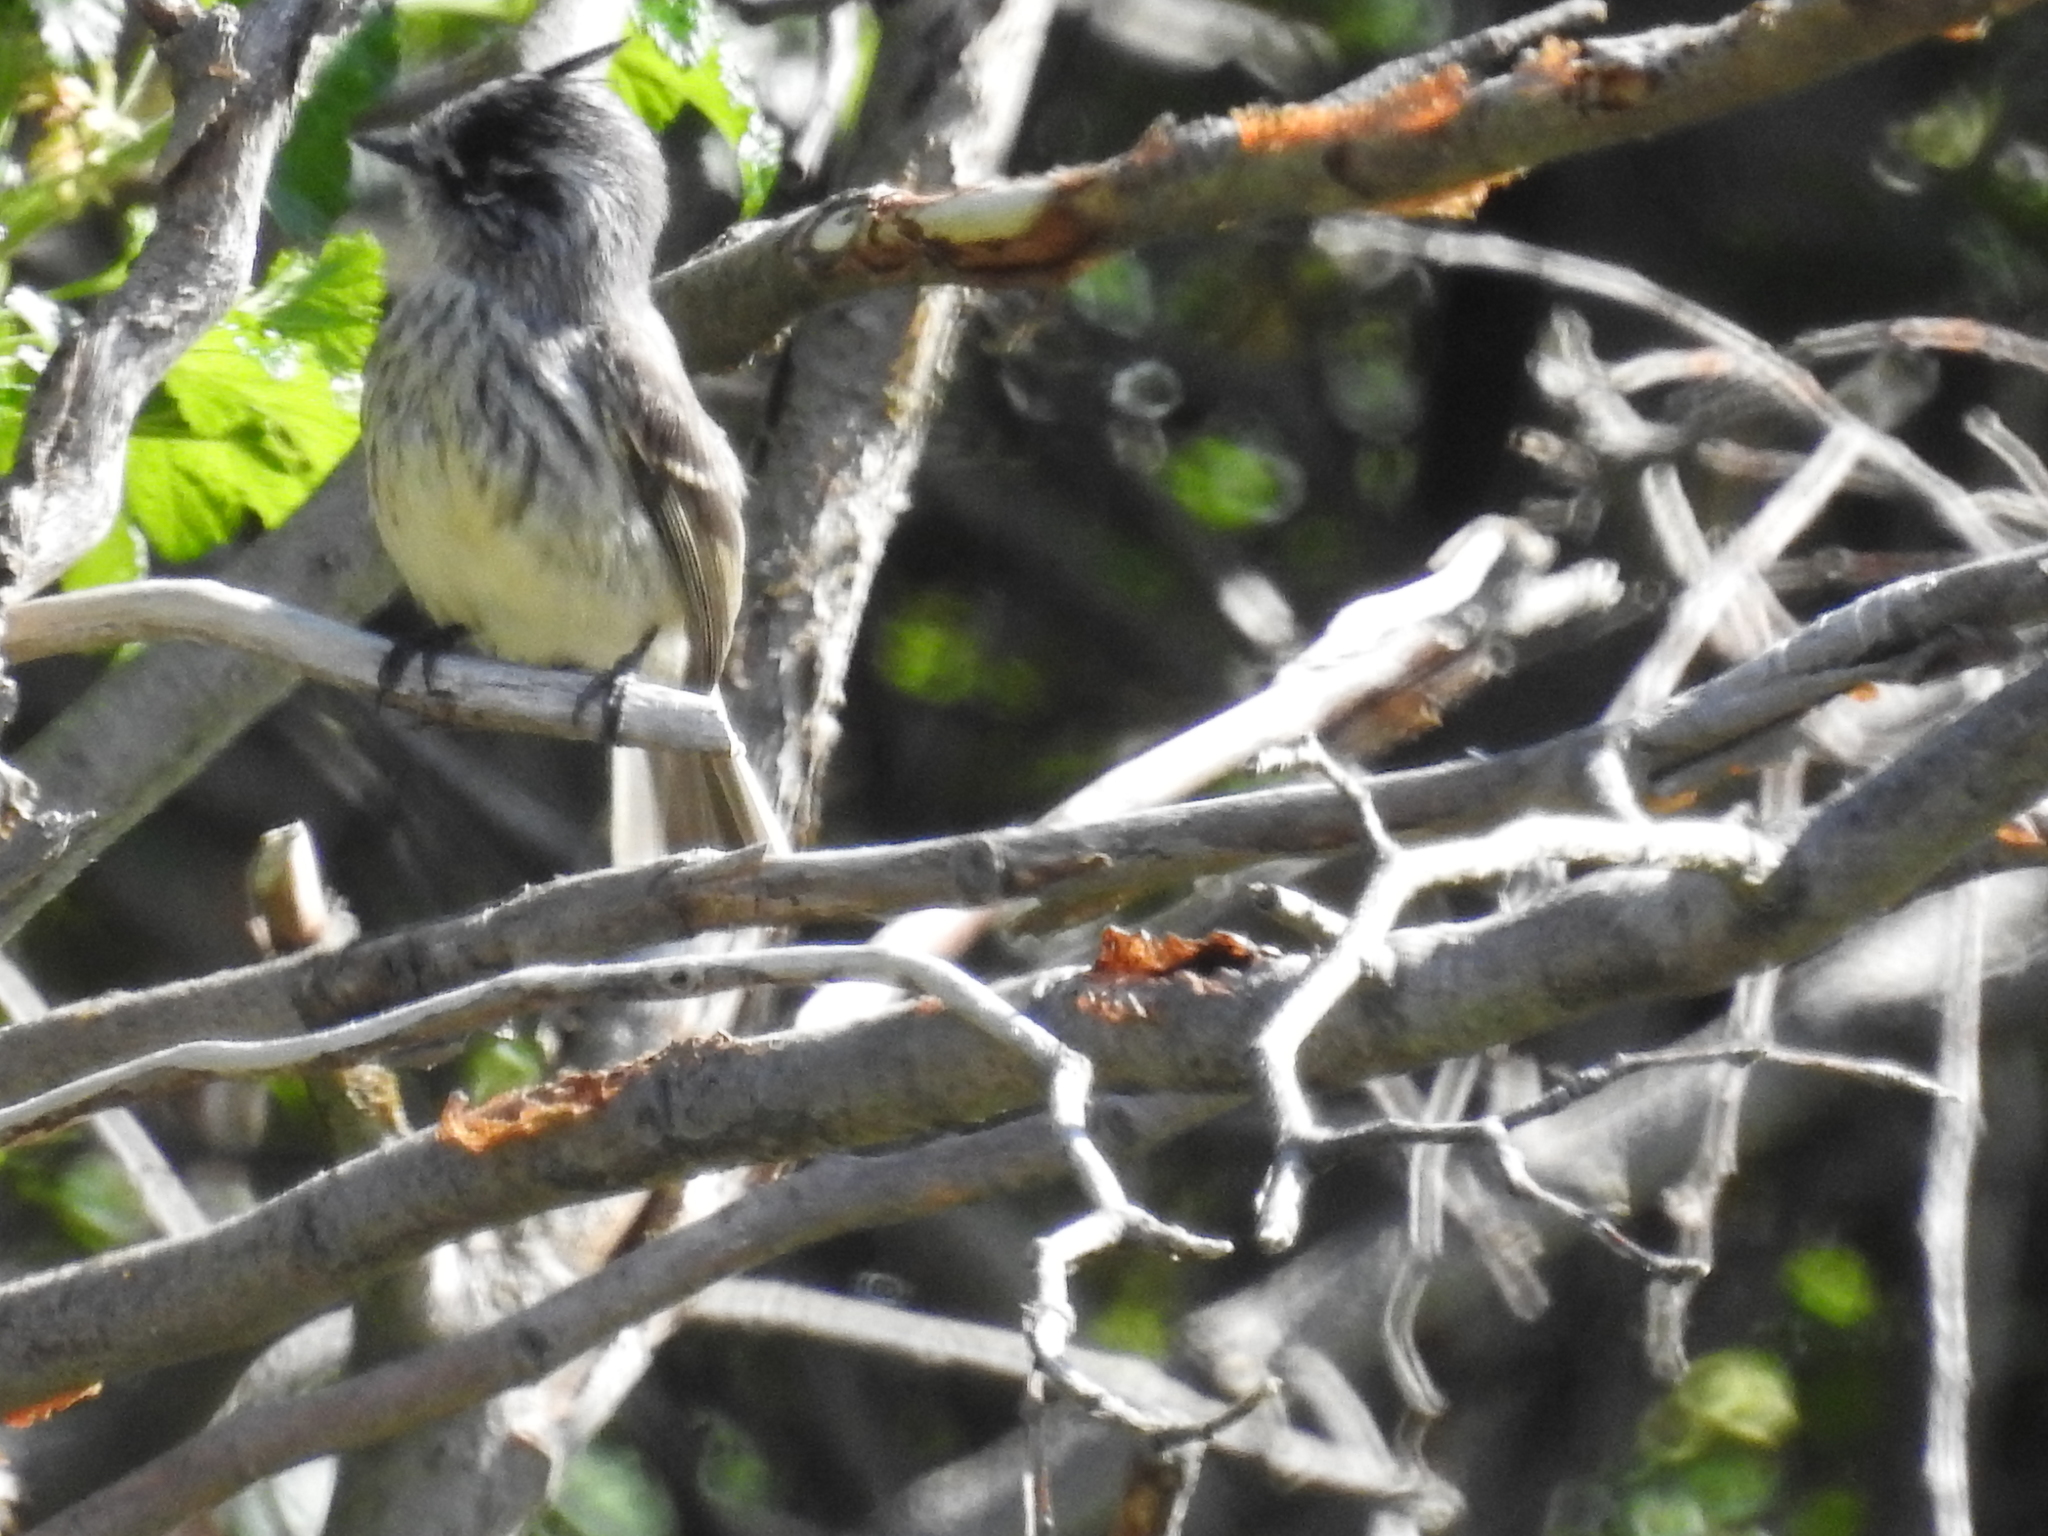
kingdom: Animalia
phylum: Chordata
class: Aves
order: Passeriformes
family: Tyrannidae
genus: Anairetes
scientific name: Anairetes parulus
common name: Tufted tit-tyrant
